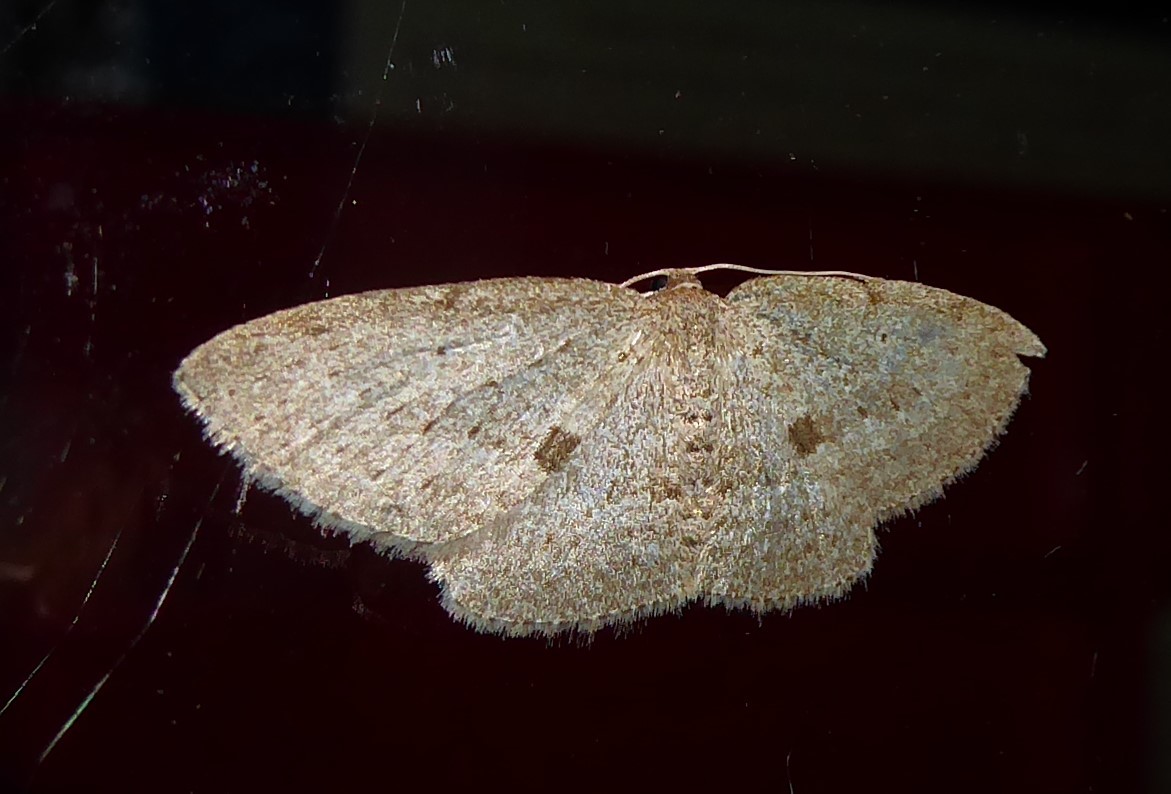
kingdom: Animalia
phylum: Arthropoda
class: Insecta
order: Lepidoptera
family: Geometridae
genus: Poecilasthena
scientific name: Poecilasthena schistaria
